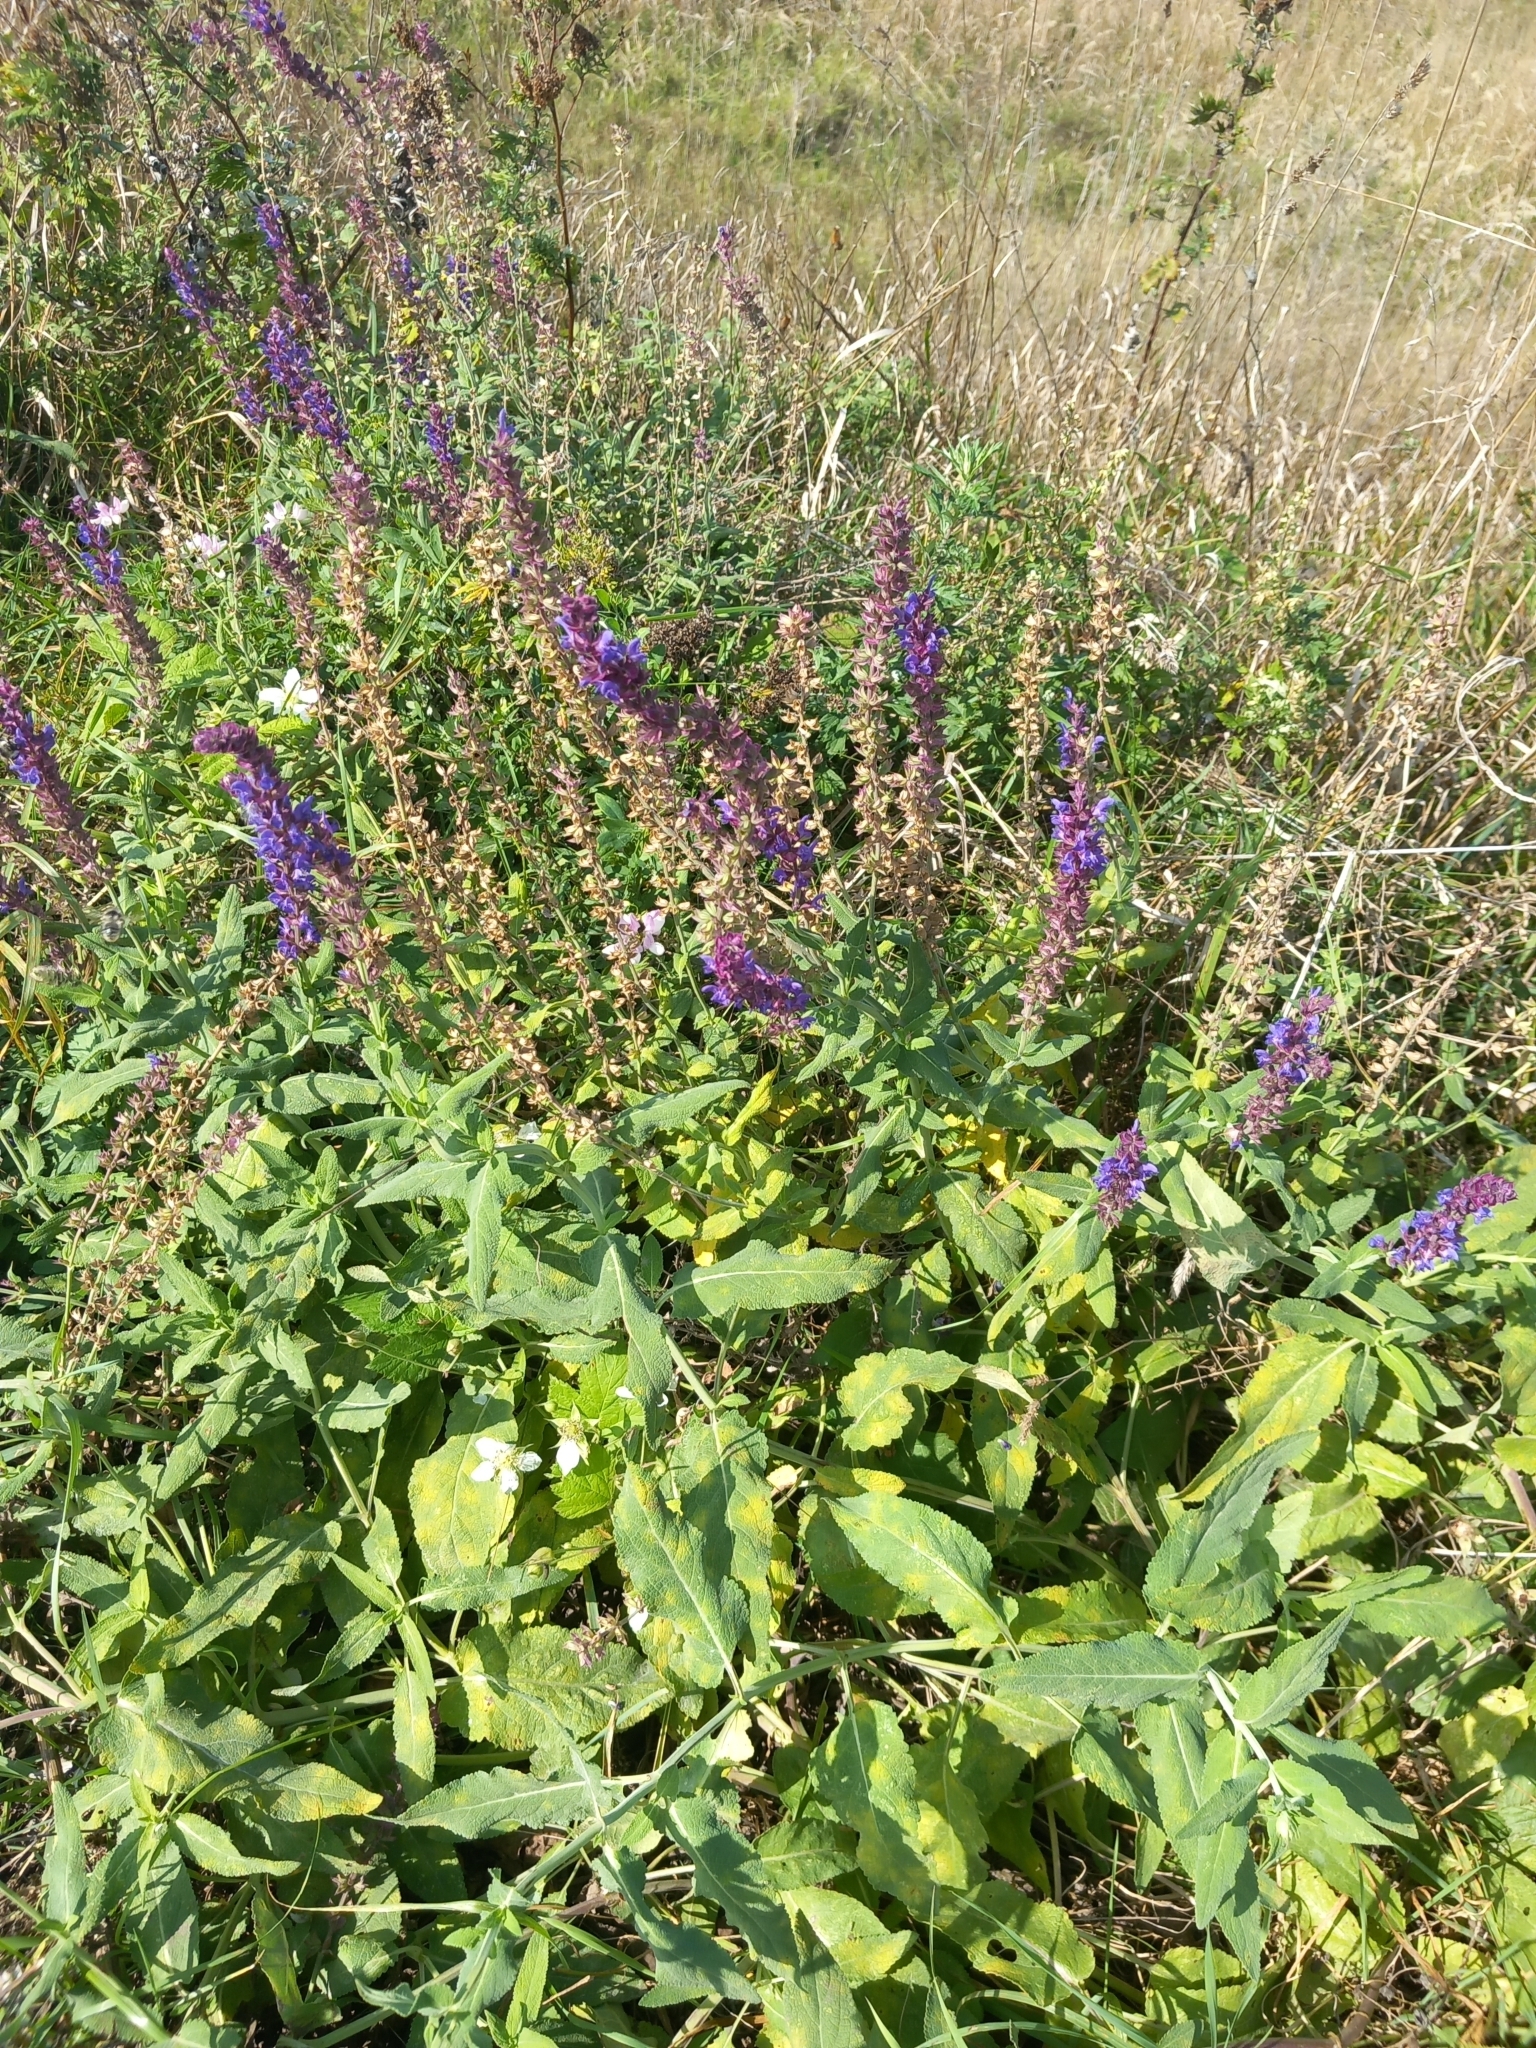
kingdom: Plantae
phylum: Tracheophyta
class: Magnoliopsida
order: Lamiales
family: Lamiaceae
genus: Salvia
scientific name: Salvia nemorosa
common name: Balkan clary
